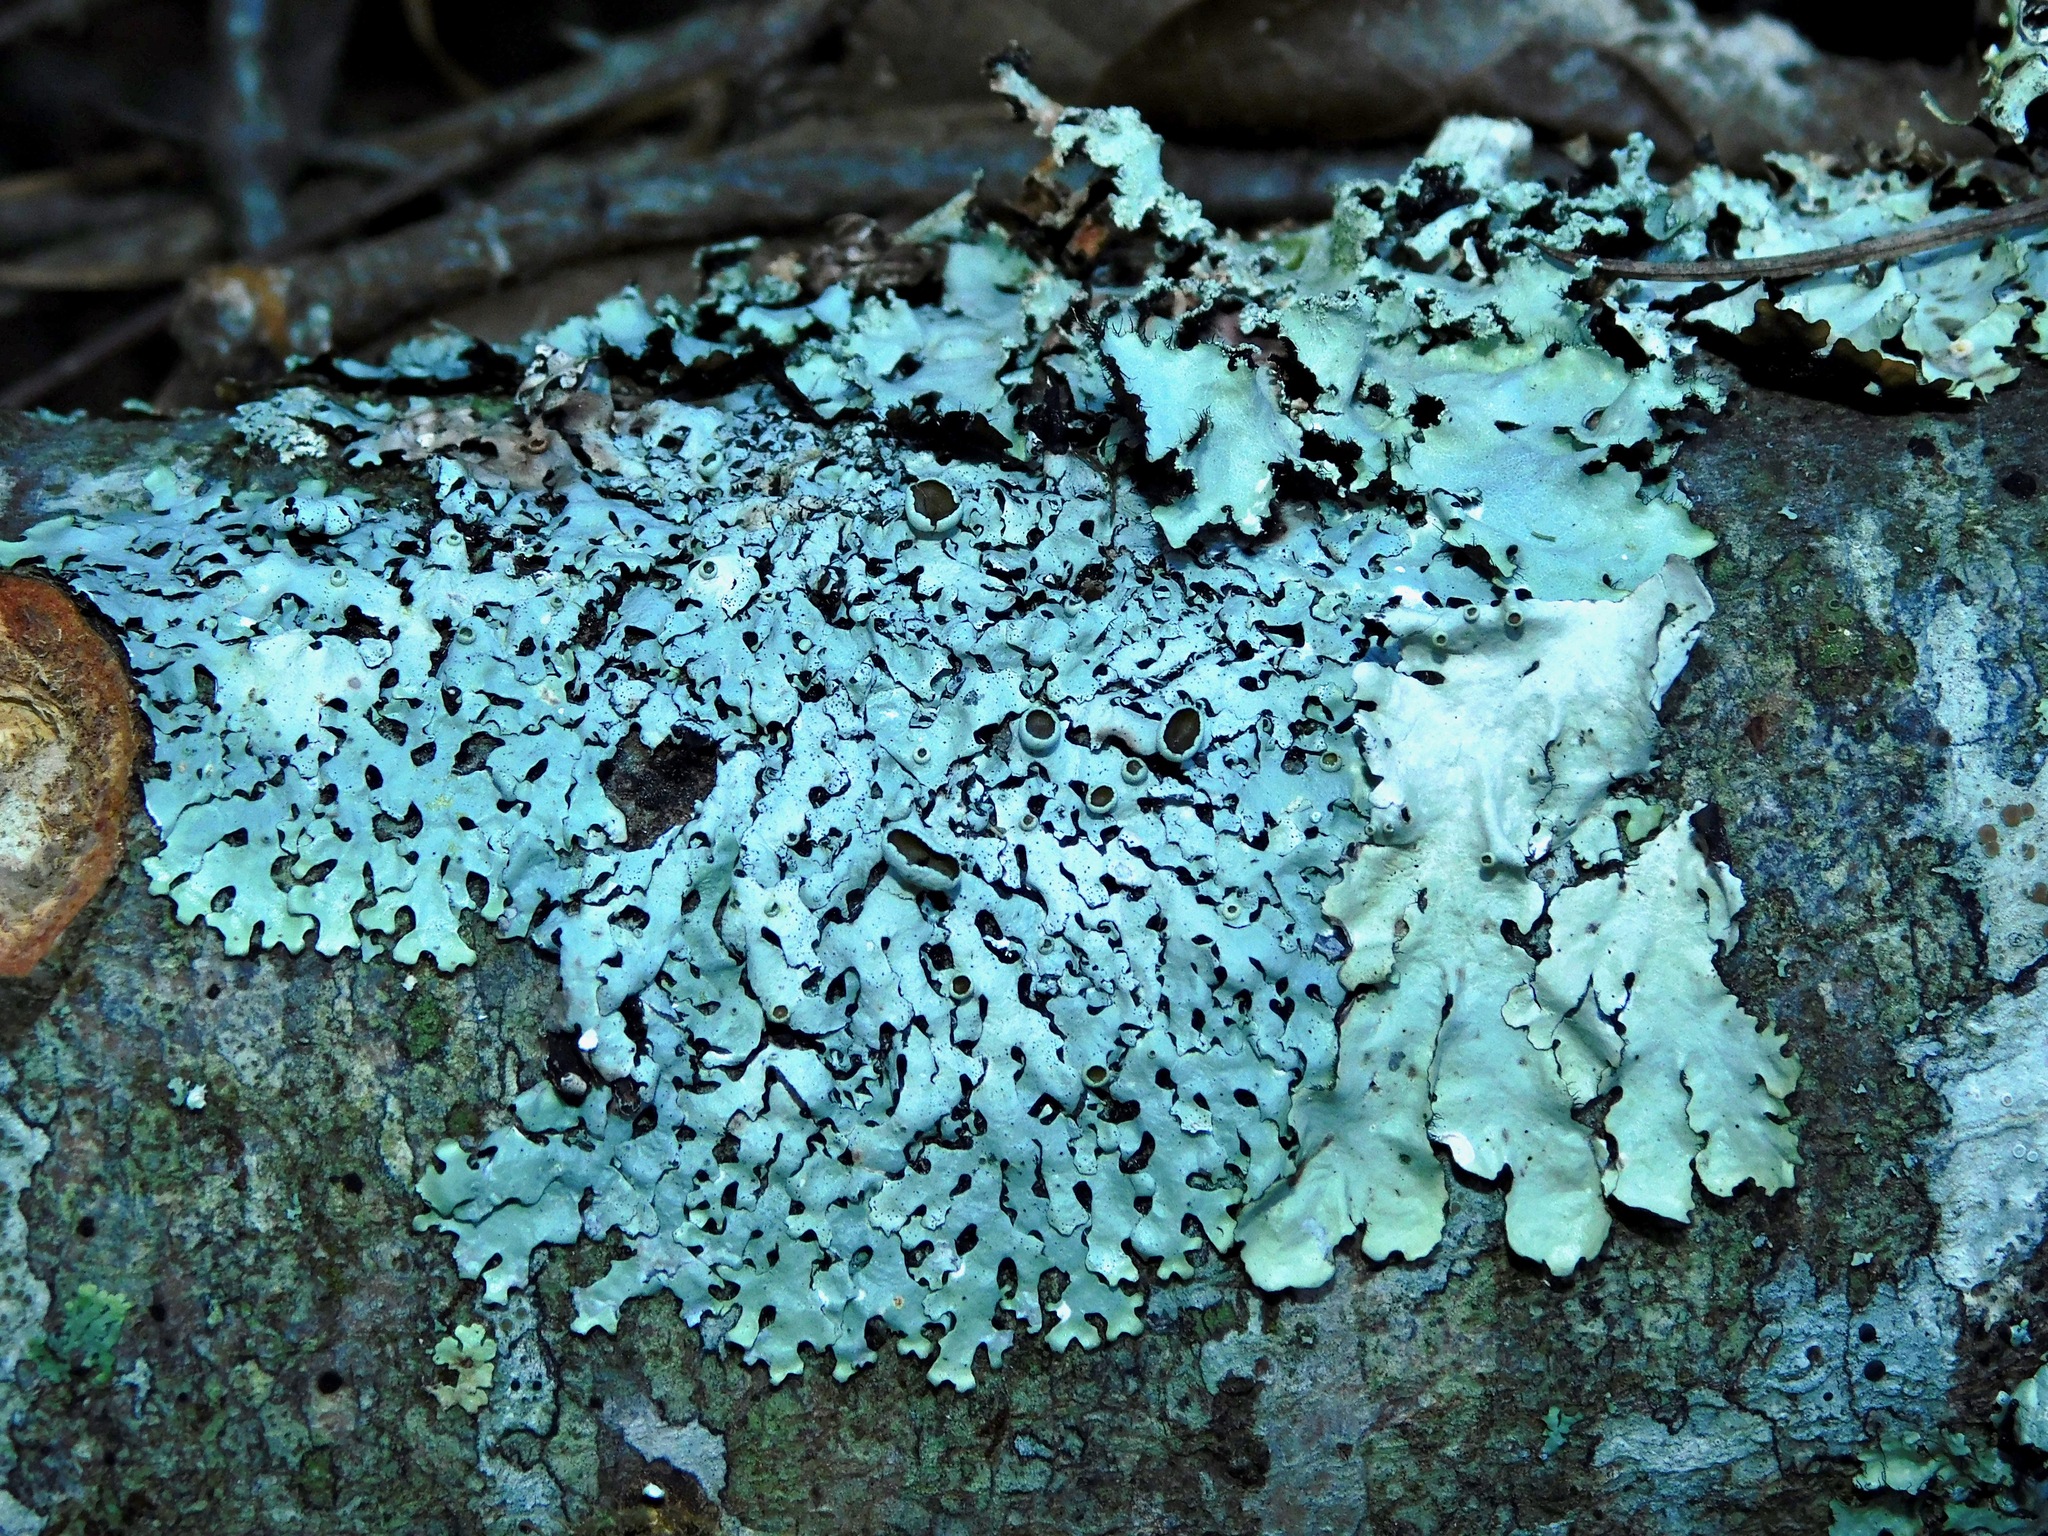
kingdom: Fungi
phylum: Ascomycota
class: Lecanoromycetes
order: Lecanorales
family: Parmeliaceae
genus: Hypotrachyna
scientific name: Hypotrachyna livida
